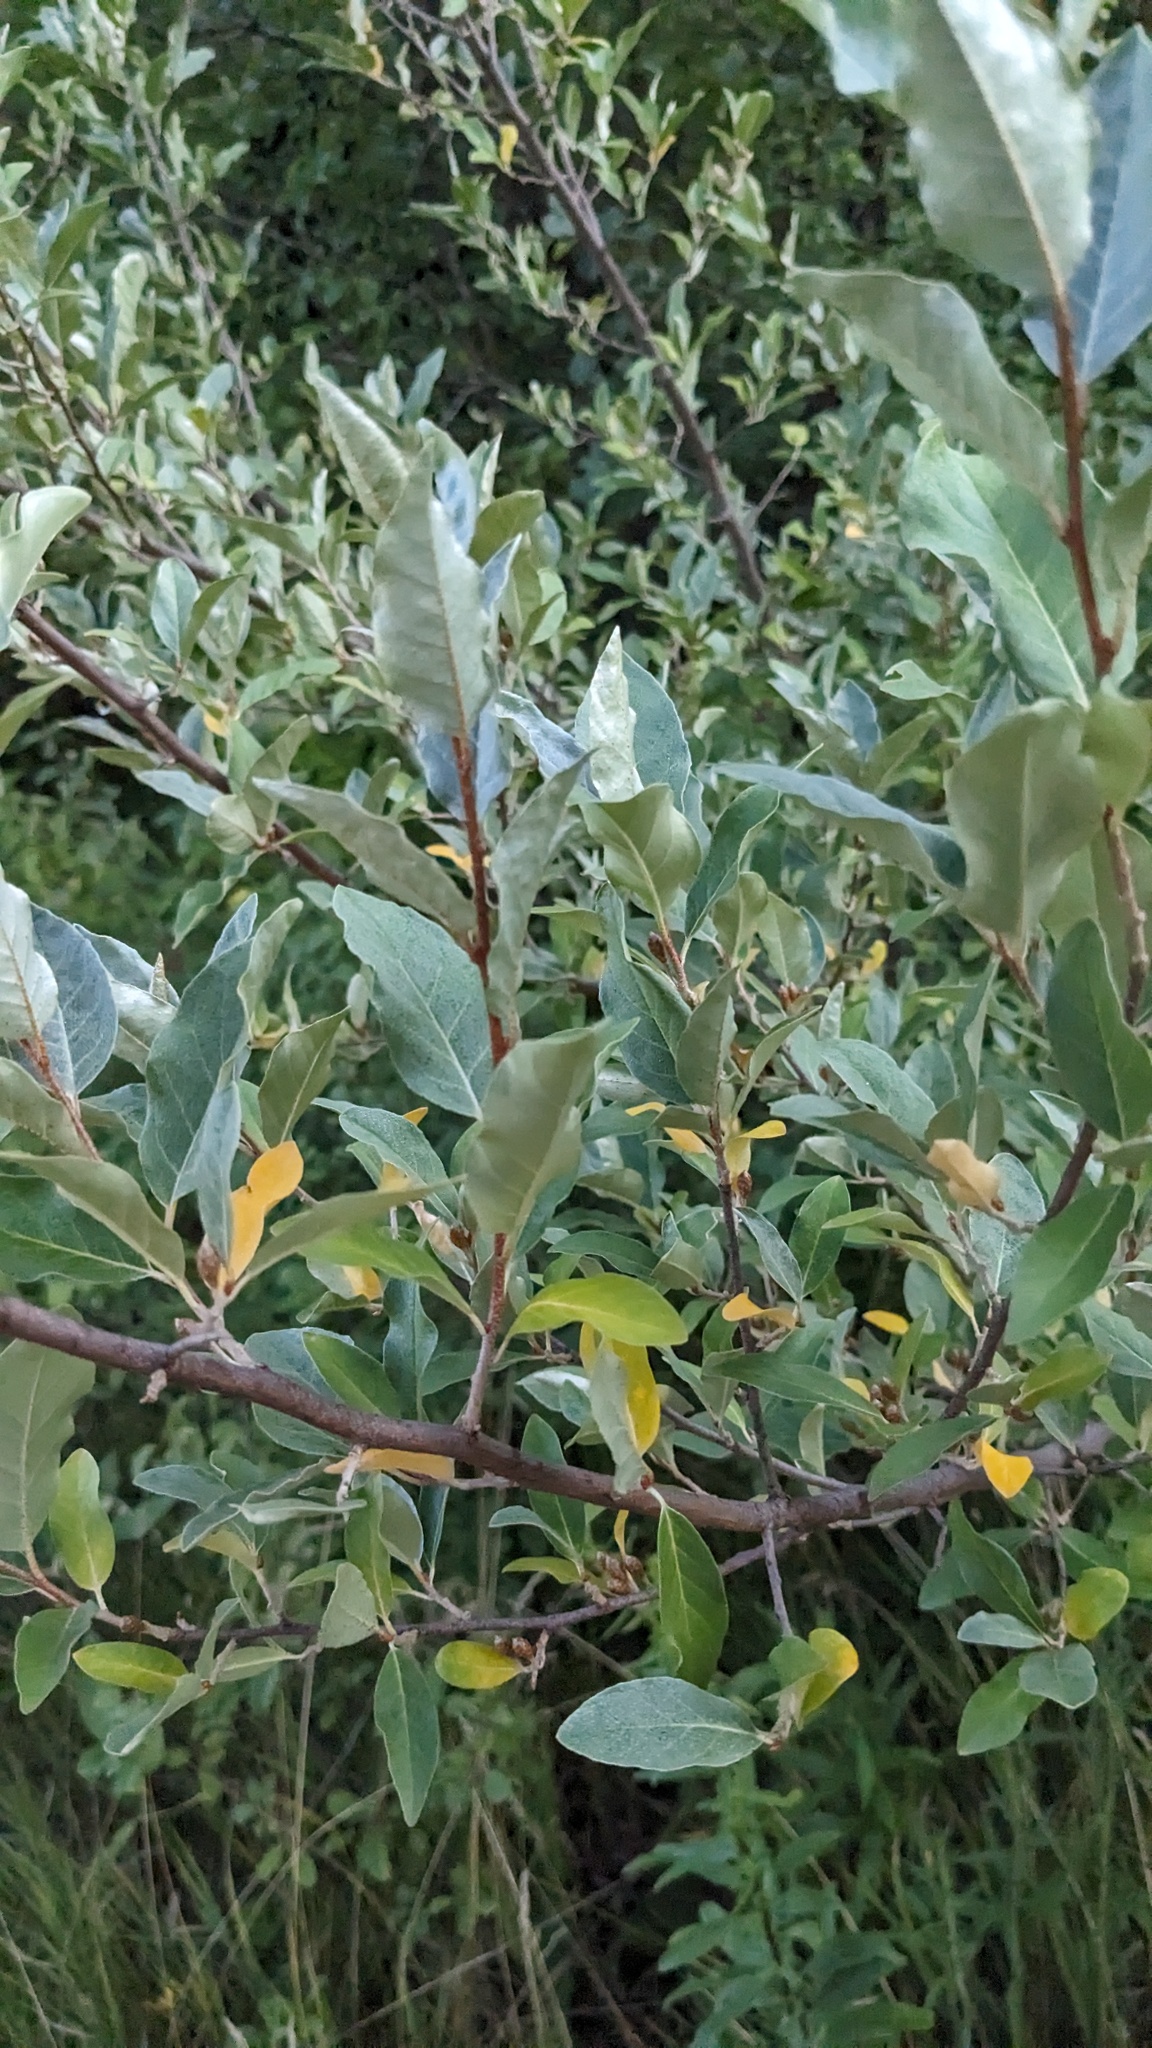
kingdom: Plantae
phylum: Tracheophyta
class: Magnoliopsida
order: Rosales
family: Elaeagnaceae
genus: Elaeagnus
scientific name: Elaeagnus umbellata
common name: Autumn olive
